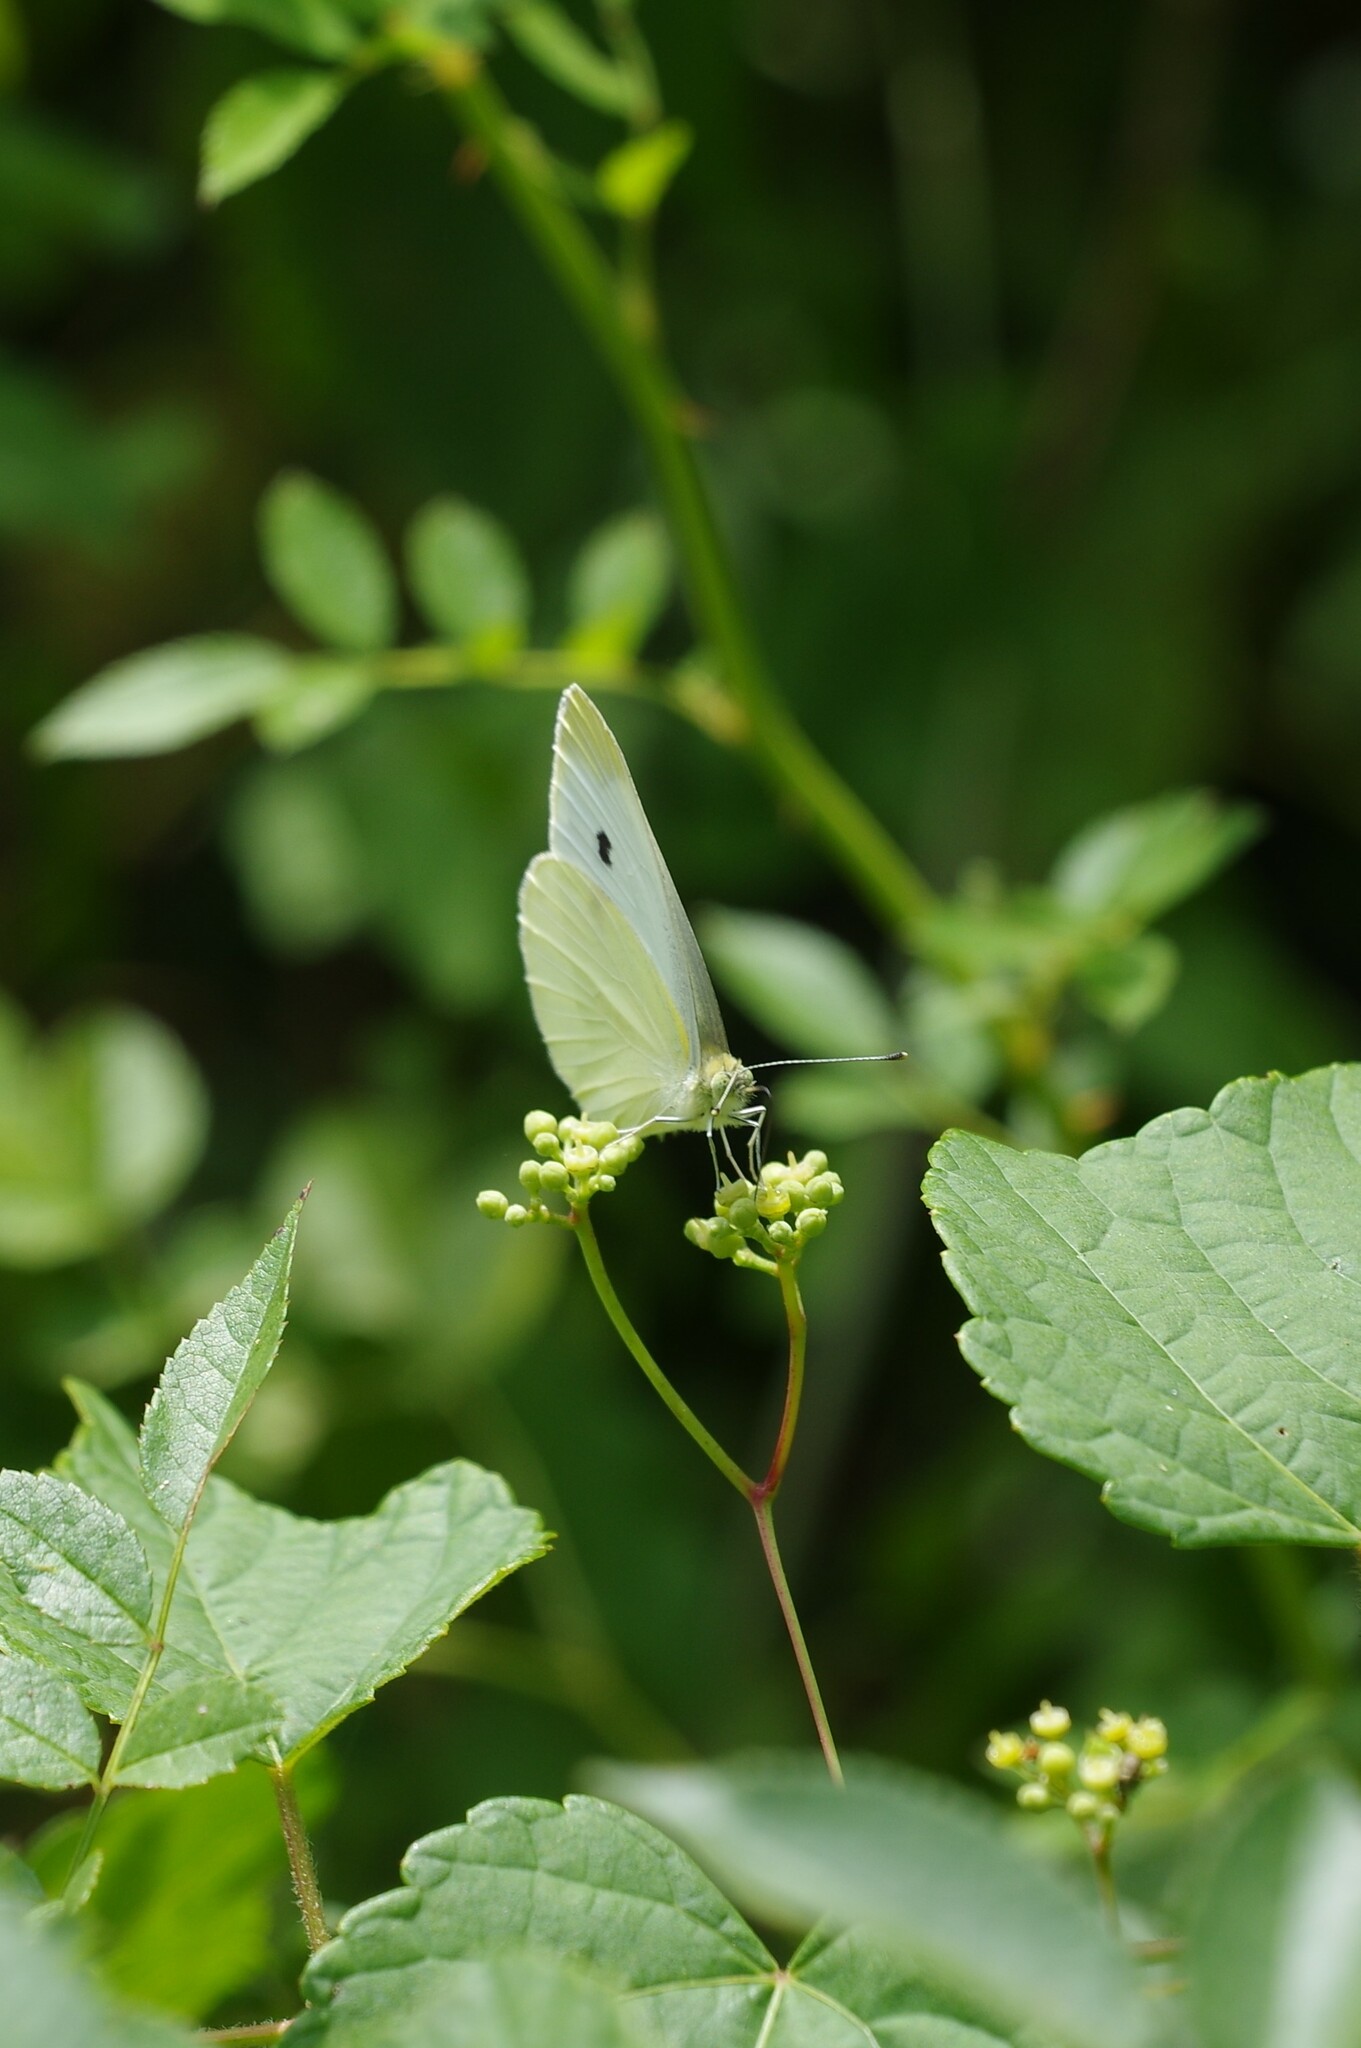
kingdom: Animalia
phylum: Arthropoda
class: Insecta
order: Lepidoptera
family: Pieridae
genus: Pieris
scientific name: Pieris rapae
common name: Small white
